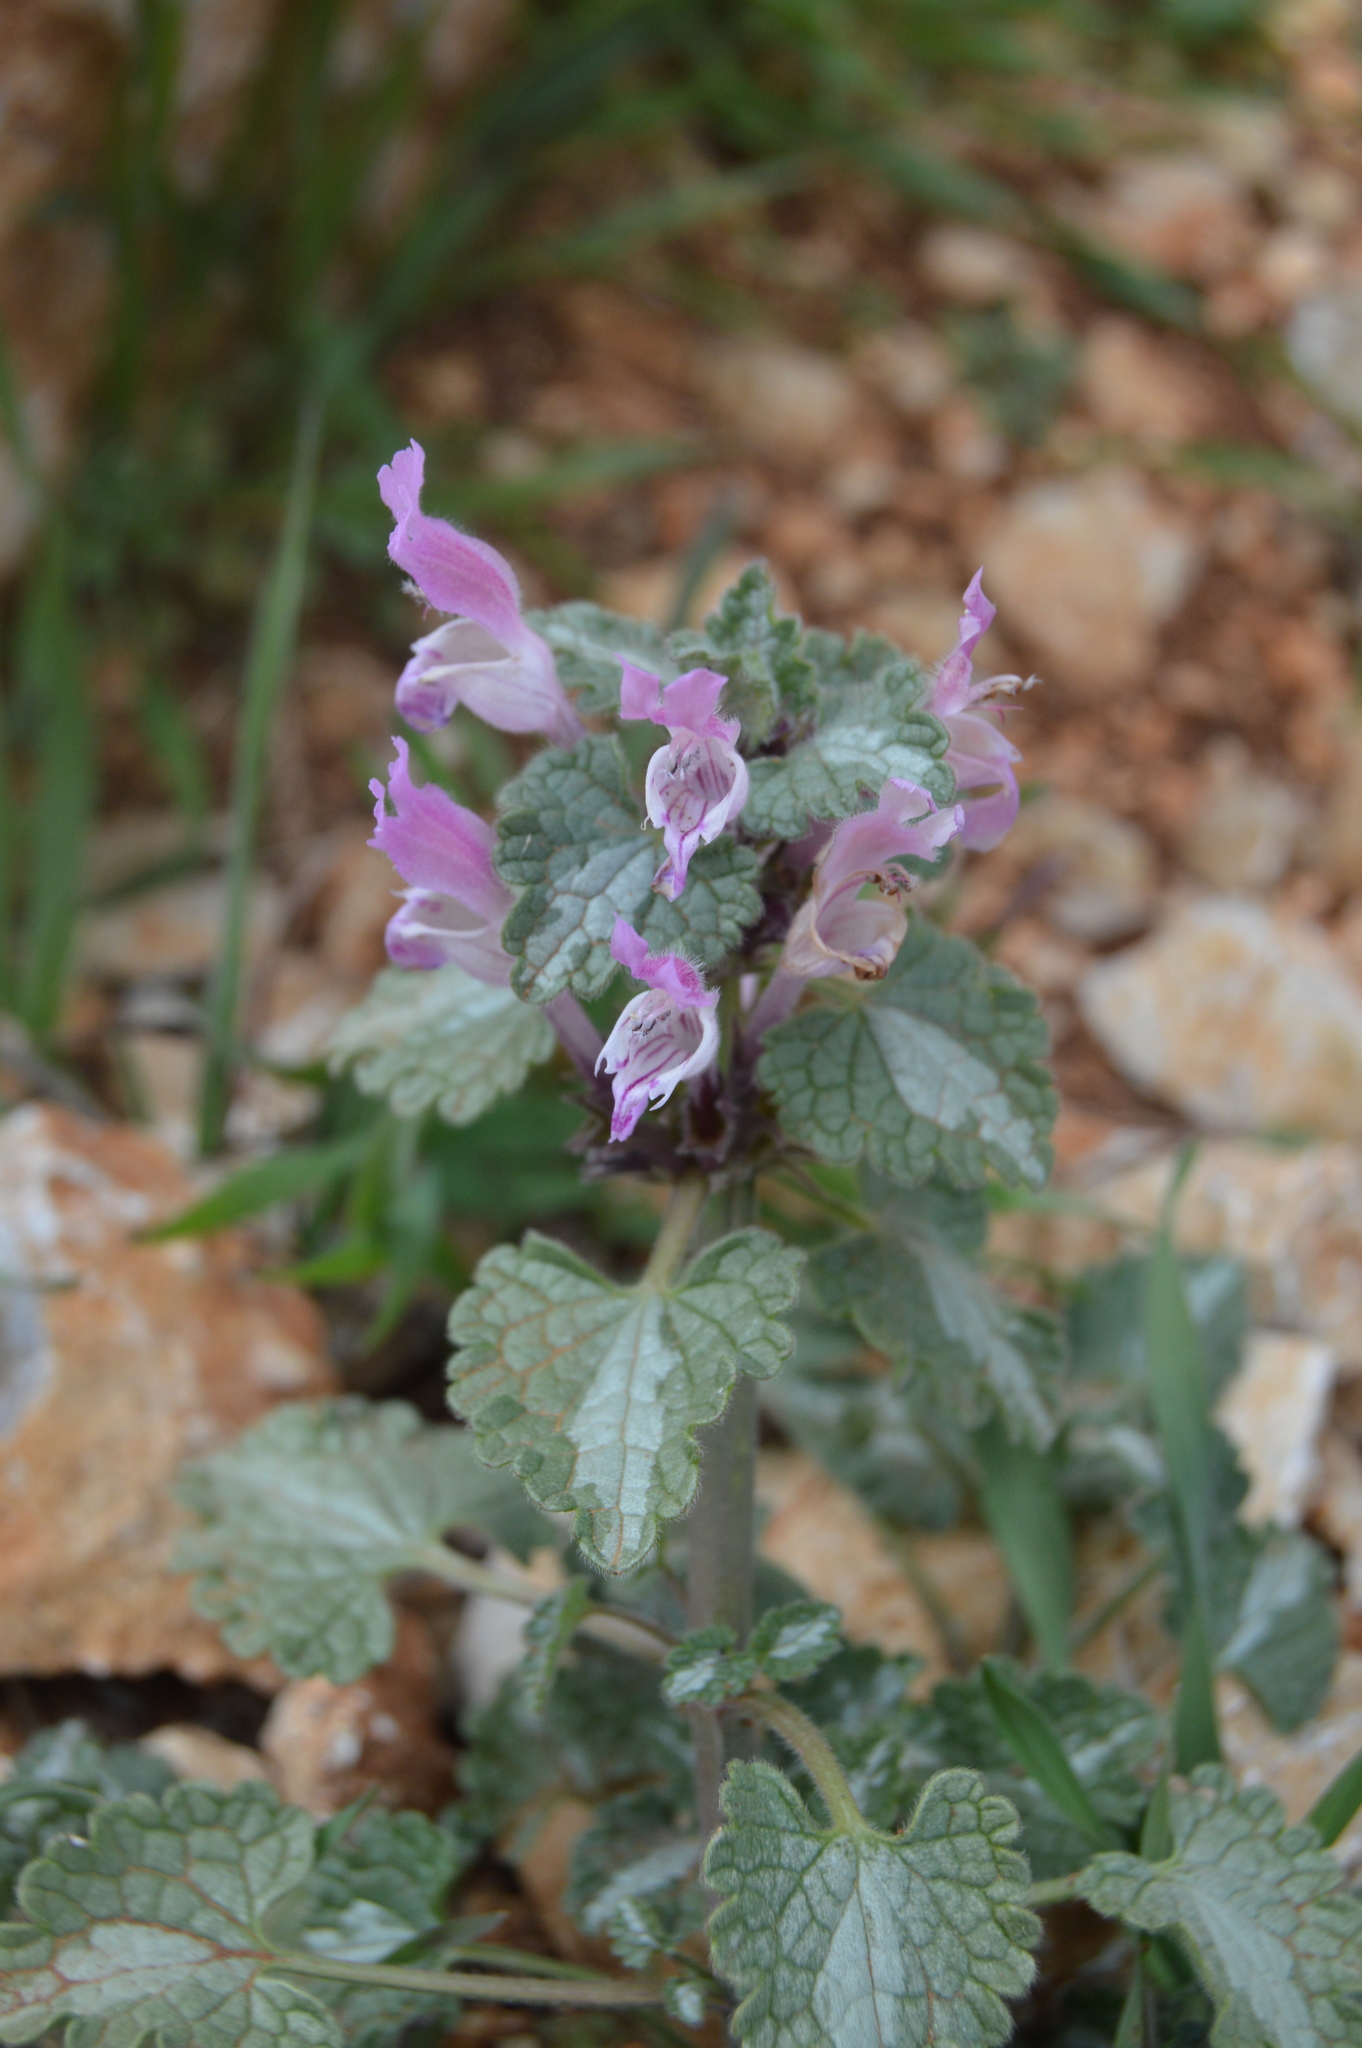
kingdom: Plantae
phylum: Tracheophyta
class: Magnoliopsida
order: Lamiales
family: Lamiaceae
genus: Lamium
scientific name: Lamium garganicum
